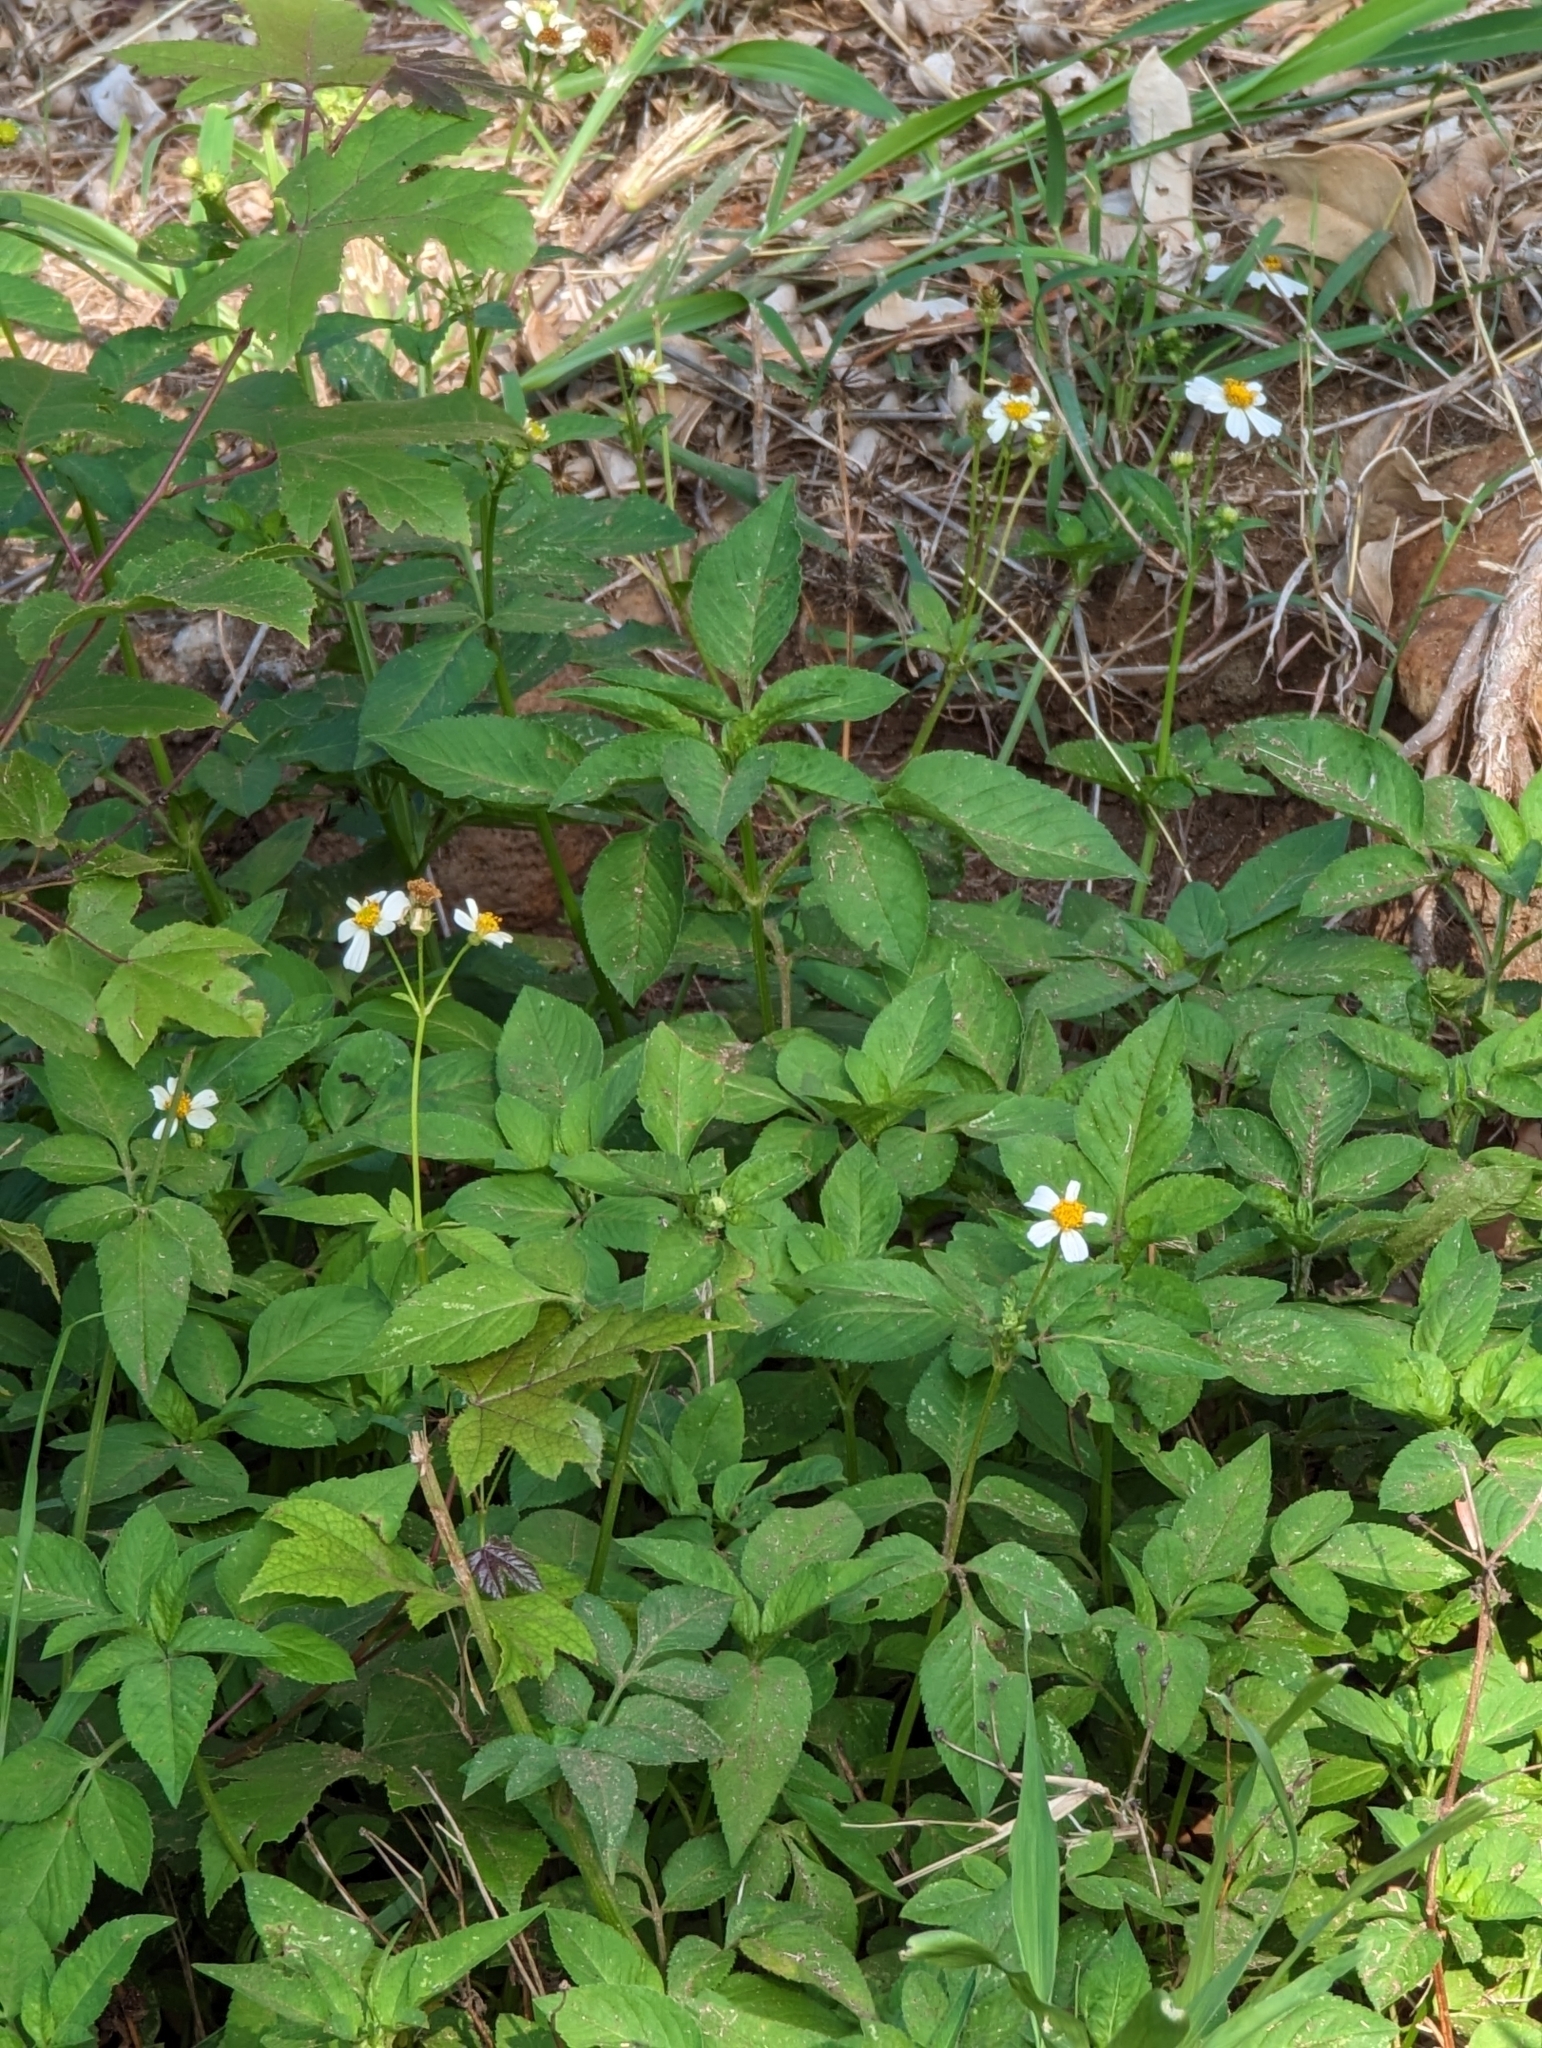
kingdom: Plantae
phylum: Tracheophyta
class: Magnoliopsida
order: Asterales
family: Asteraceae
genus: Bidens
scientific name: Bidens alba
